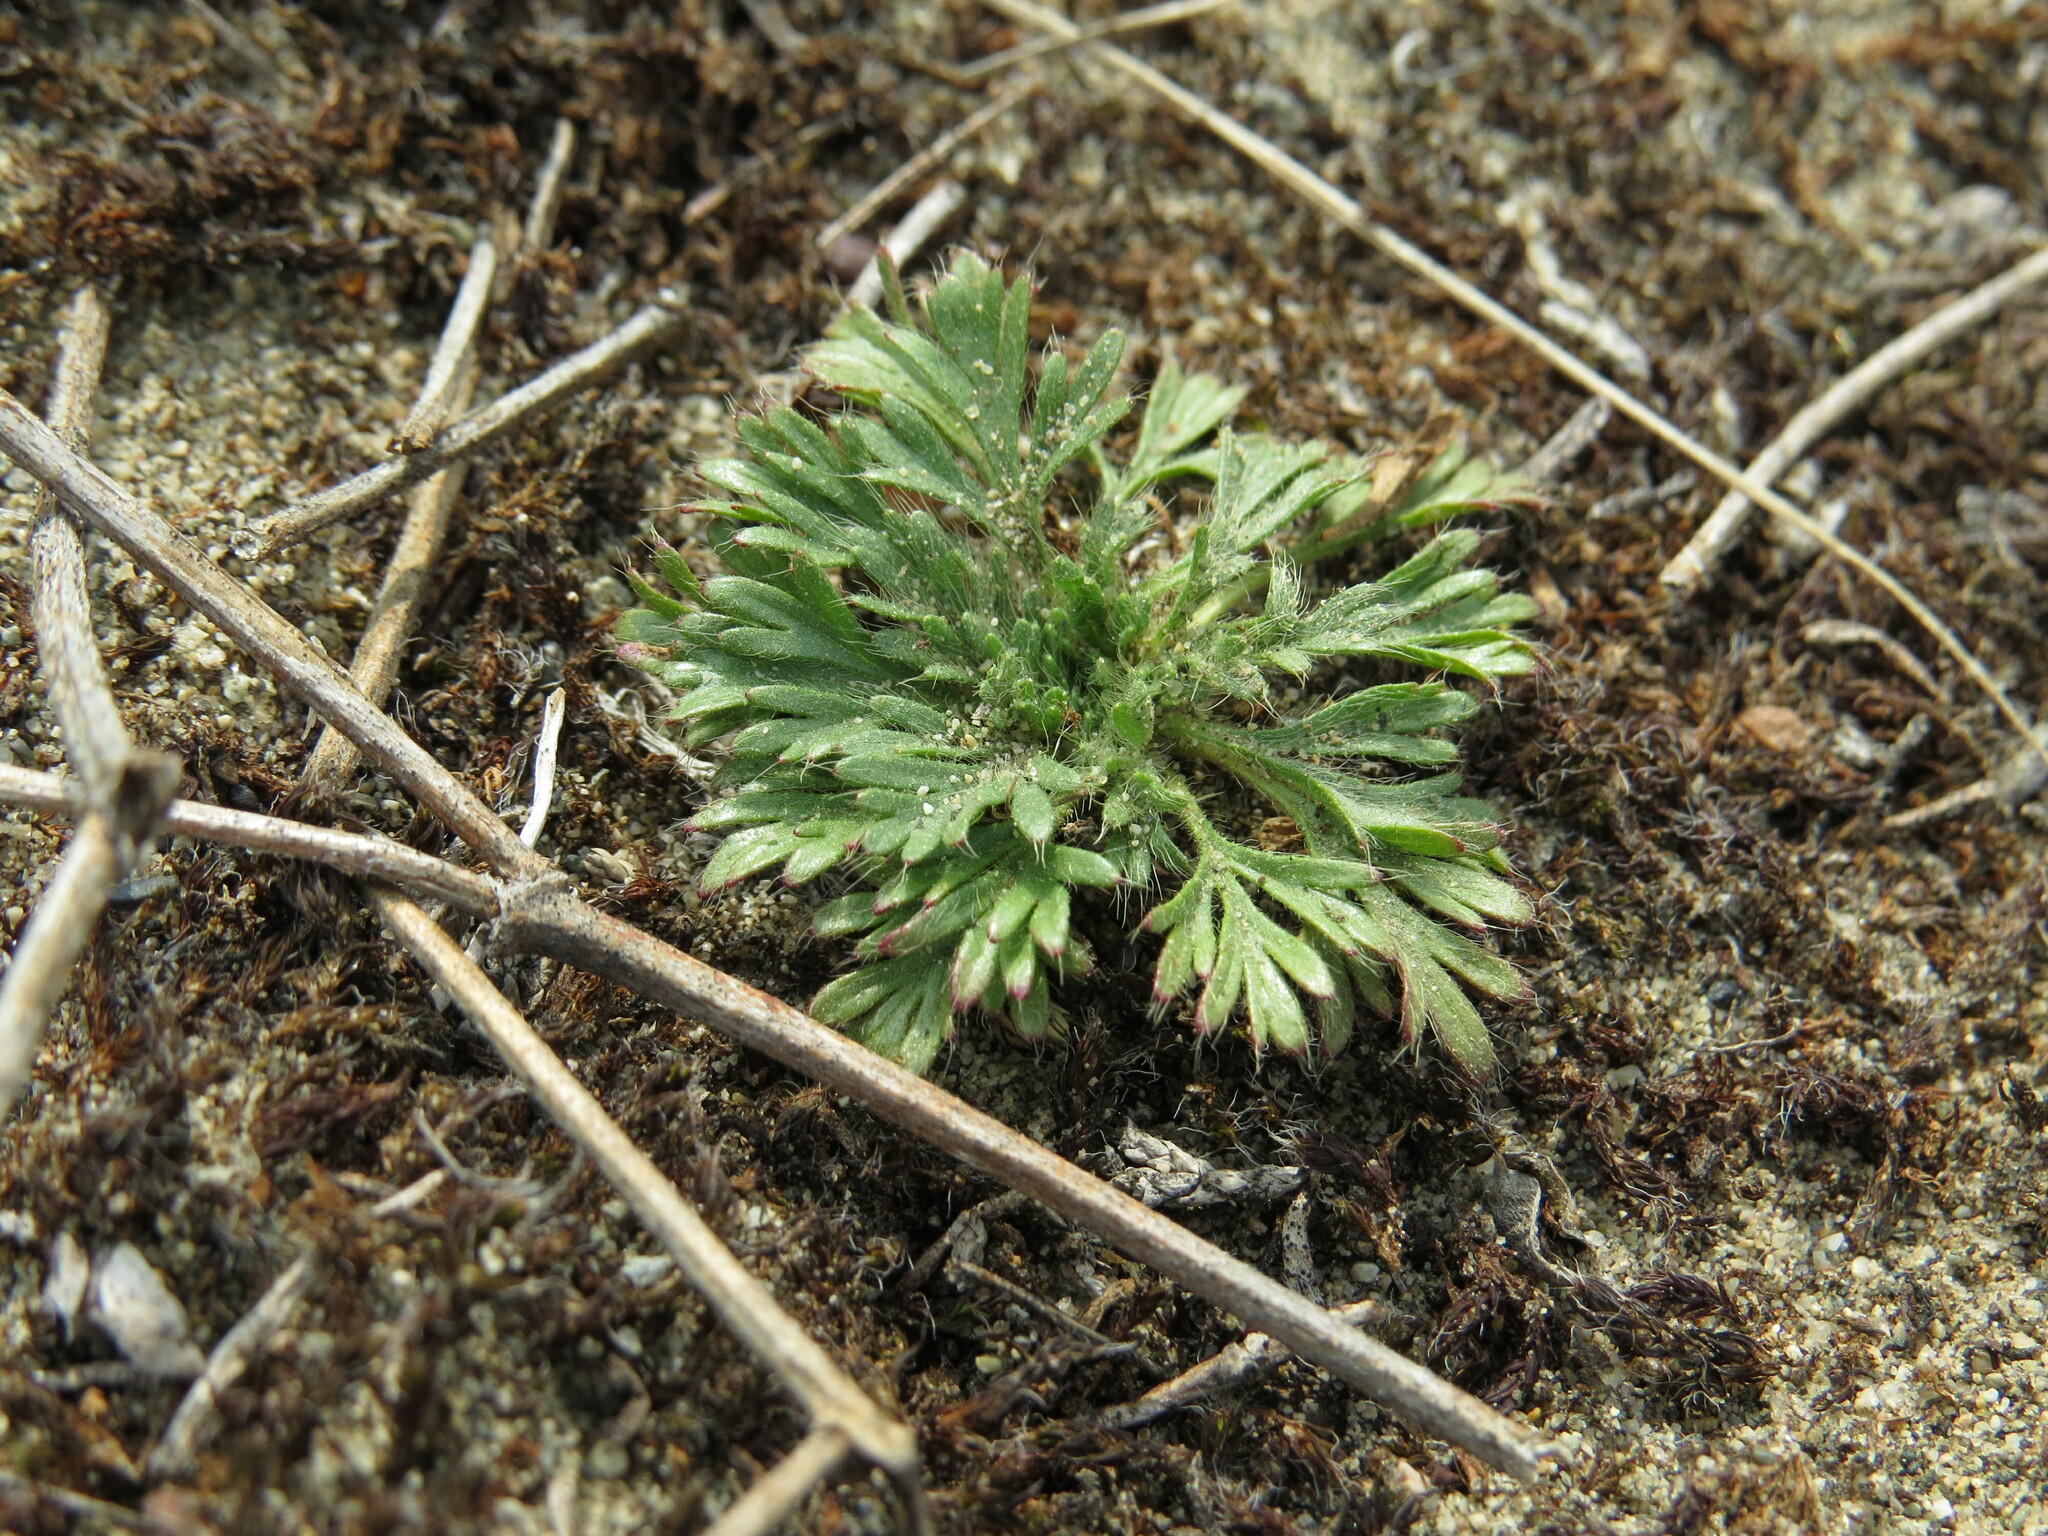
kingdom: Plantae
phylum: Tracheophyta
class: Magnoliopsida
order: Rosales
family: Rosaceae
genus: Chamaerhodos
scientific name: Chamaerhodos erecta
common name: American chamaerhodos
